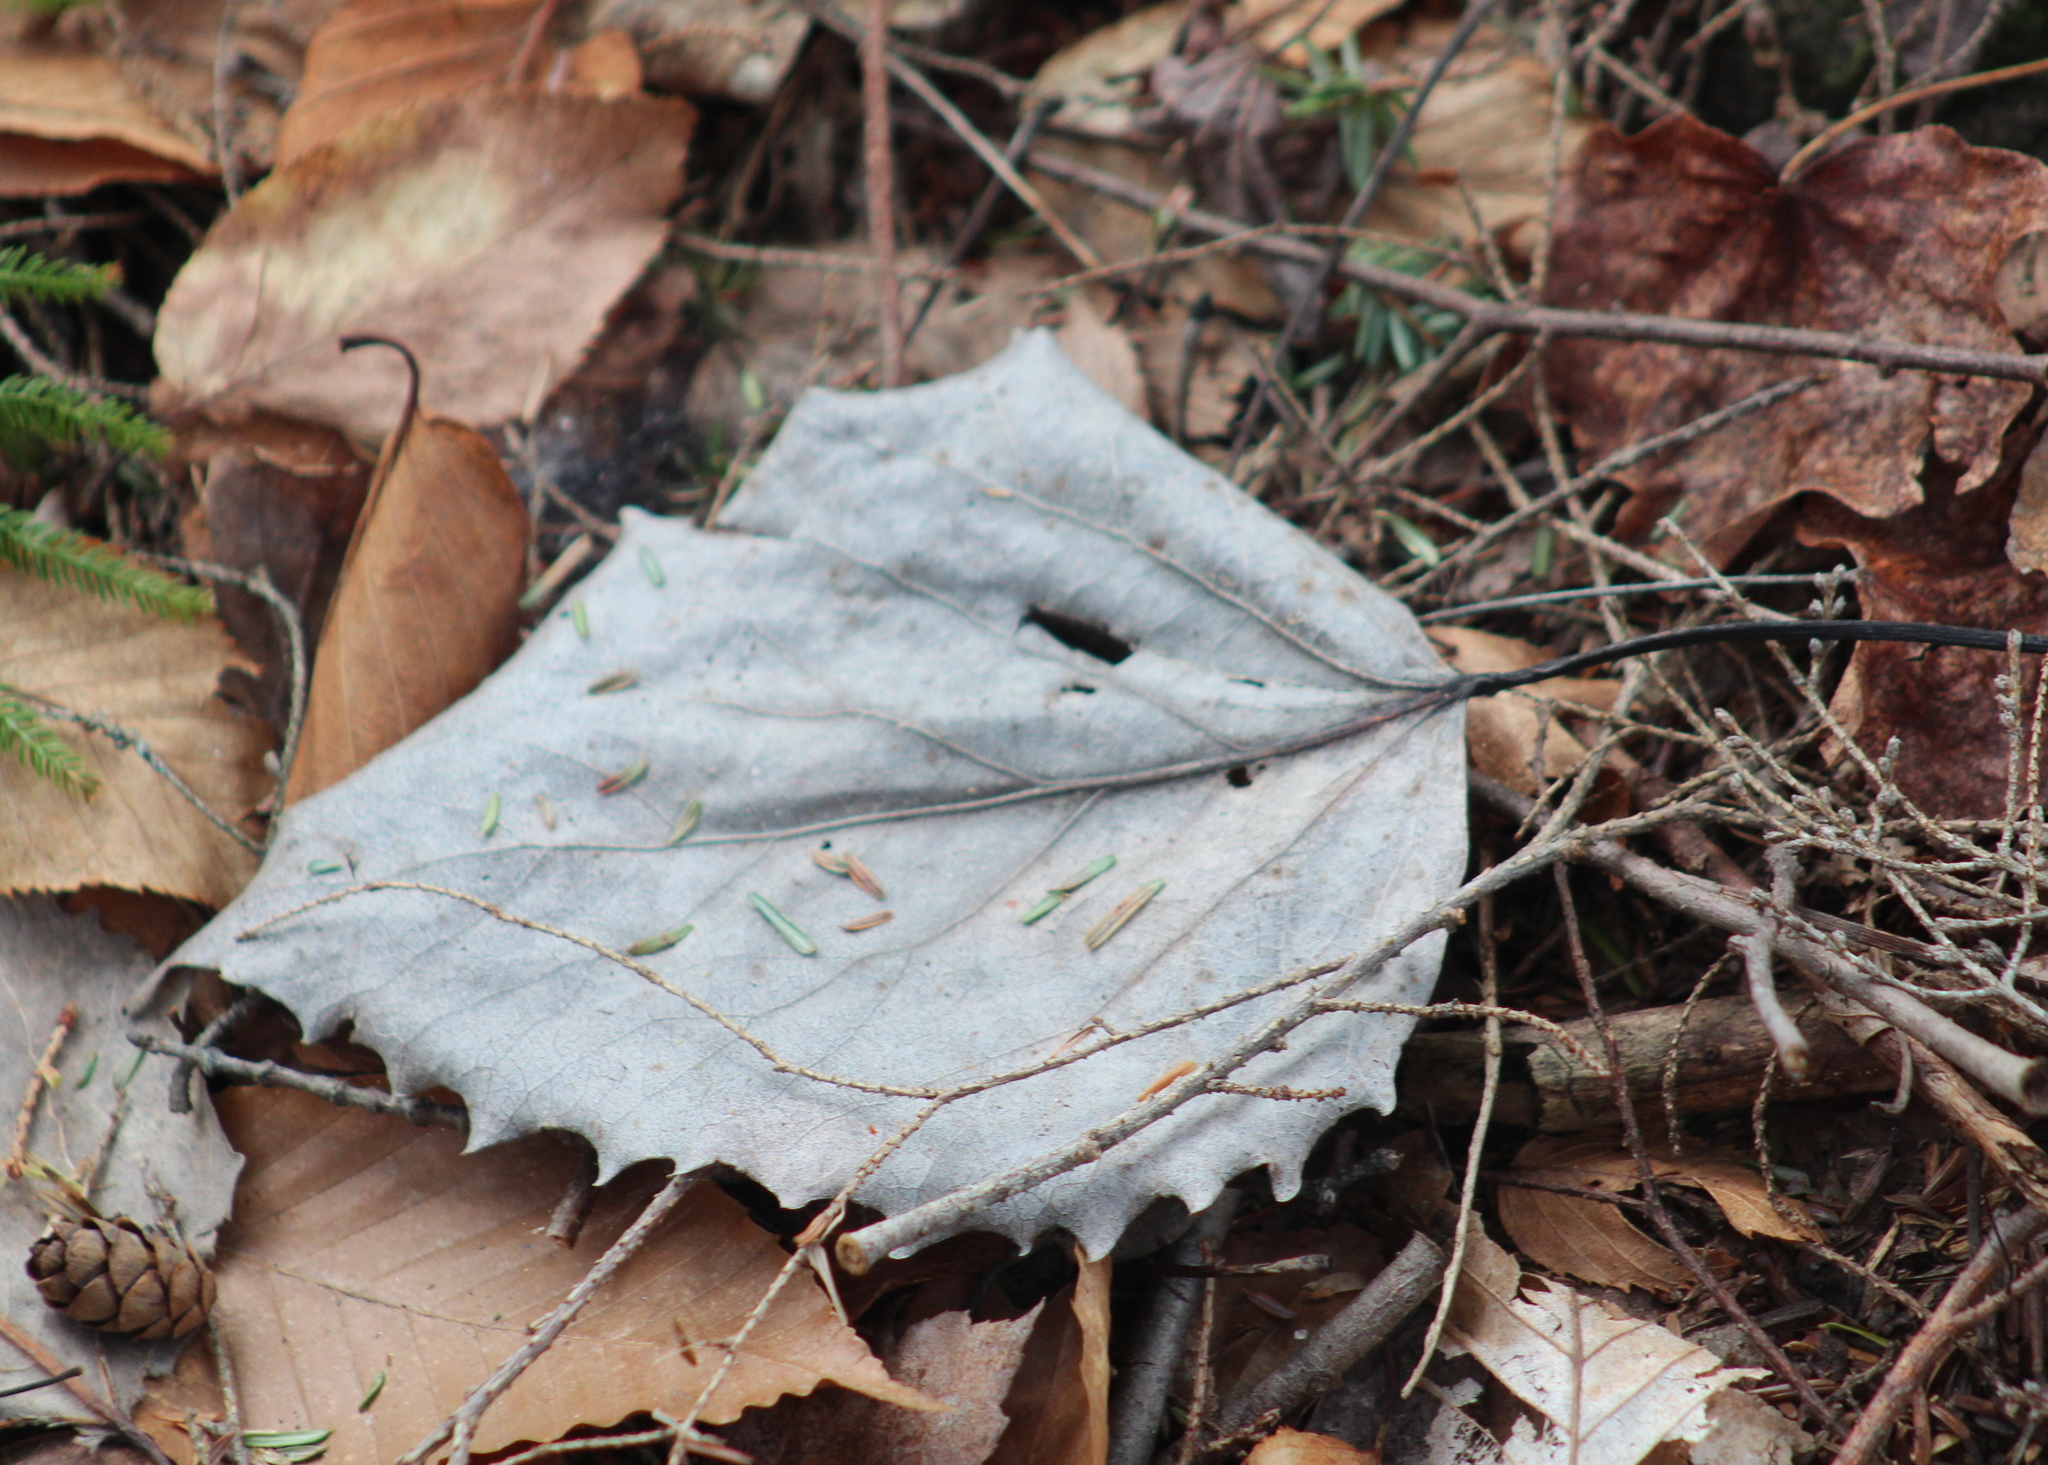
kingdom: Plantae
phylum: Tracheophyta
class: Magnoliopsida
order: Malpighiales
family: Salicaceae
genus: Populus
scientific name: Populus grandidentata
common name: Bigtooth aspen
